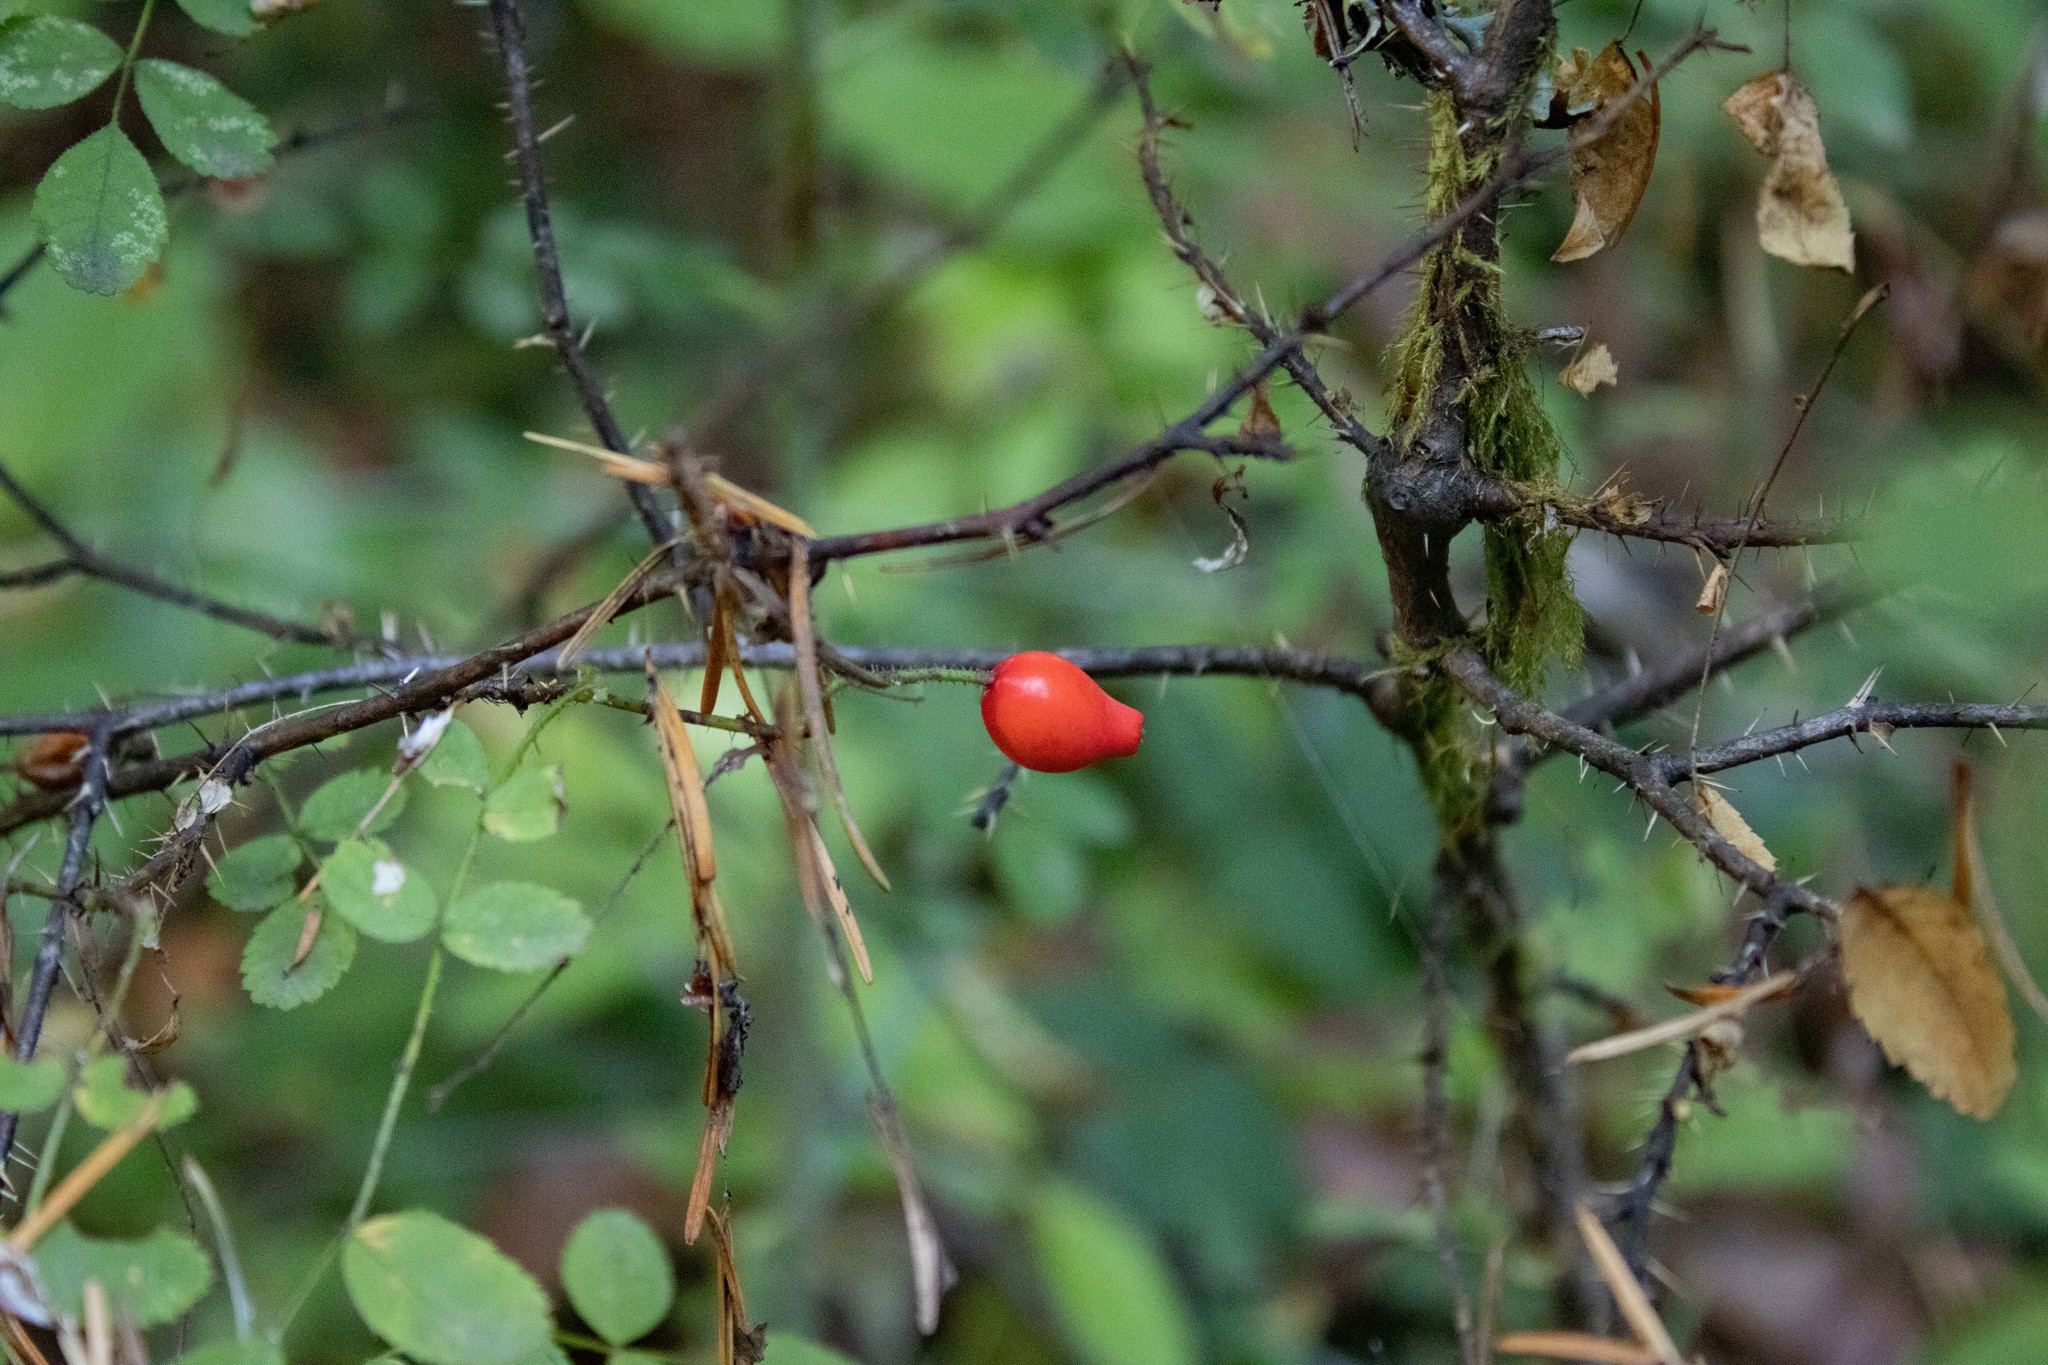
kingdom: Plantae
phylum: Tracheophyta
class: Magnoliopsida
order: Rosales
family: Rosaceae
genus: Rosa
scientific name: Rosa gymnocarpa
